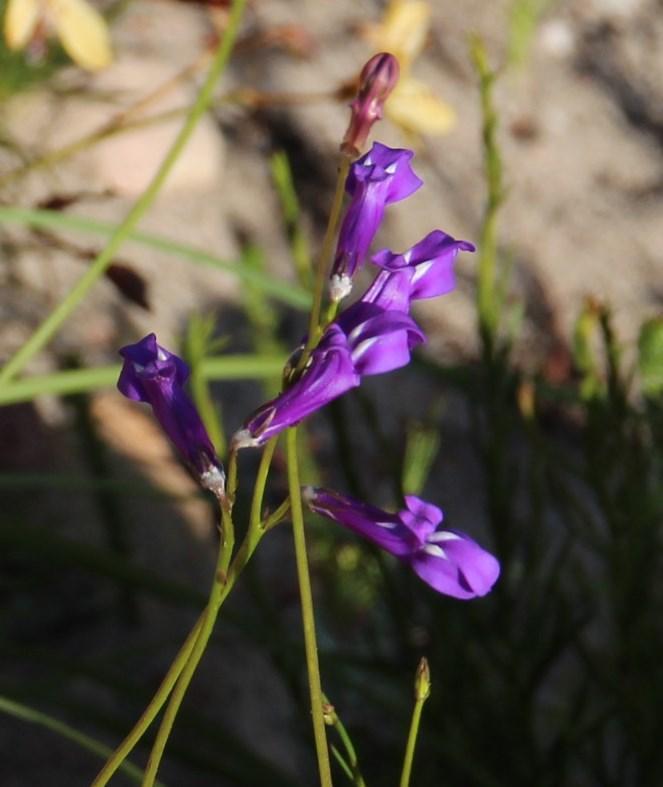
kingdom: Plantae
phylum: Tracheophyta
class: Magnoliopsida
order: Asterales
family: Campanulaceae
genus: Lobelia
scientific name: Lobelia coronopifolia
